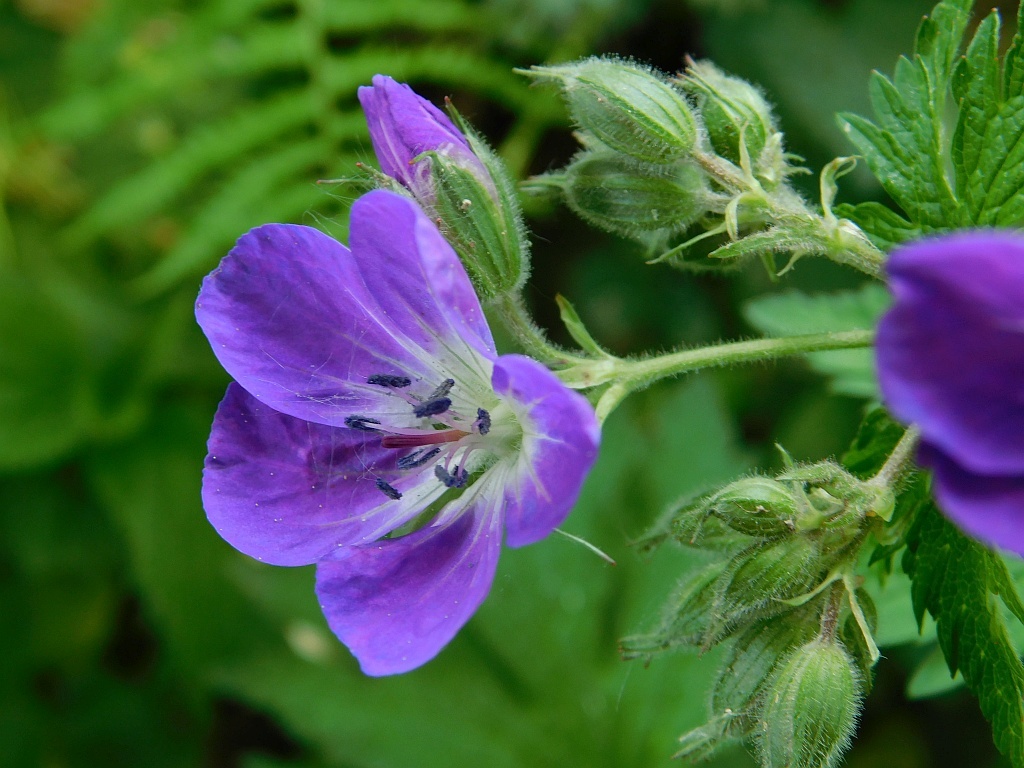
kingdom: Plantae
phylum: Tracheophyta
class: Magnoliopsida
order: Geraniales
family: Geraniaceae
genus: Geranium
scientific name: Geranium sylvaticum
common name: Wood crane's-bill
